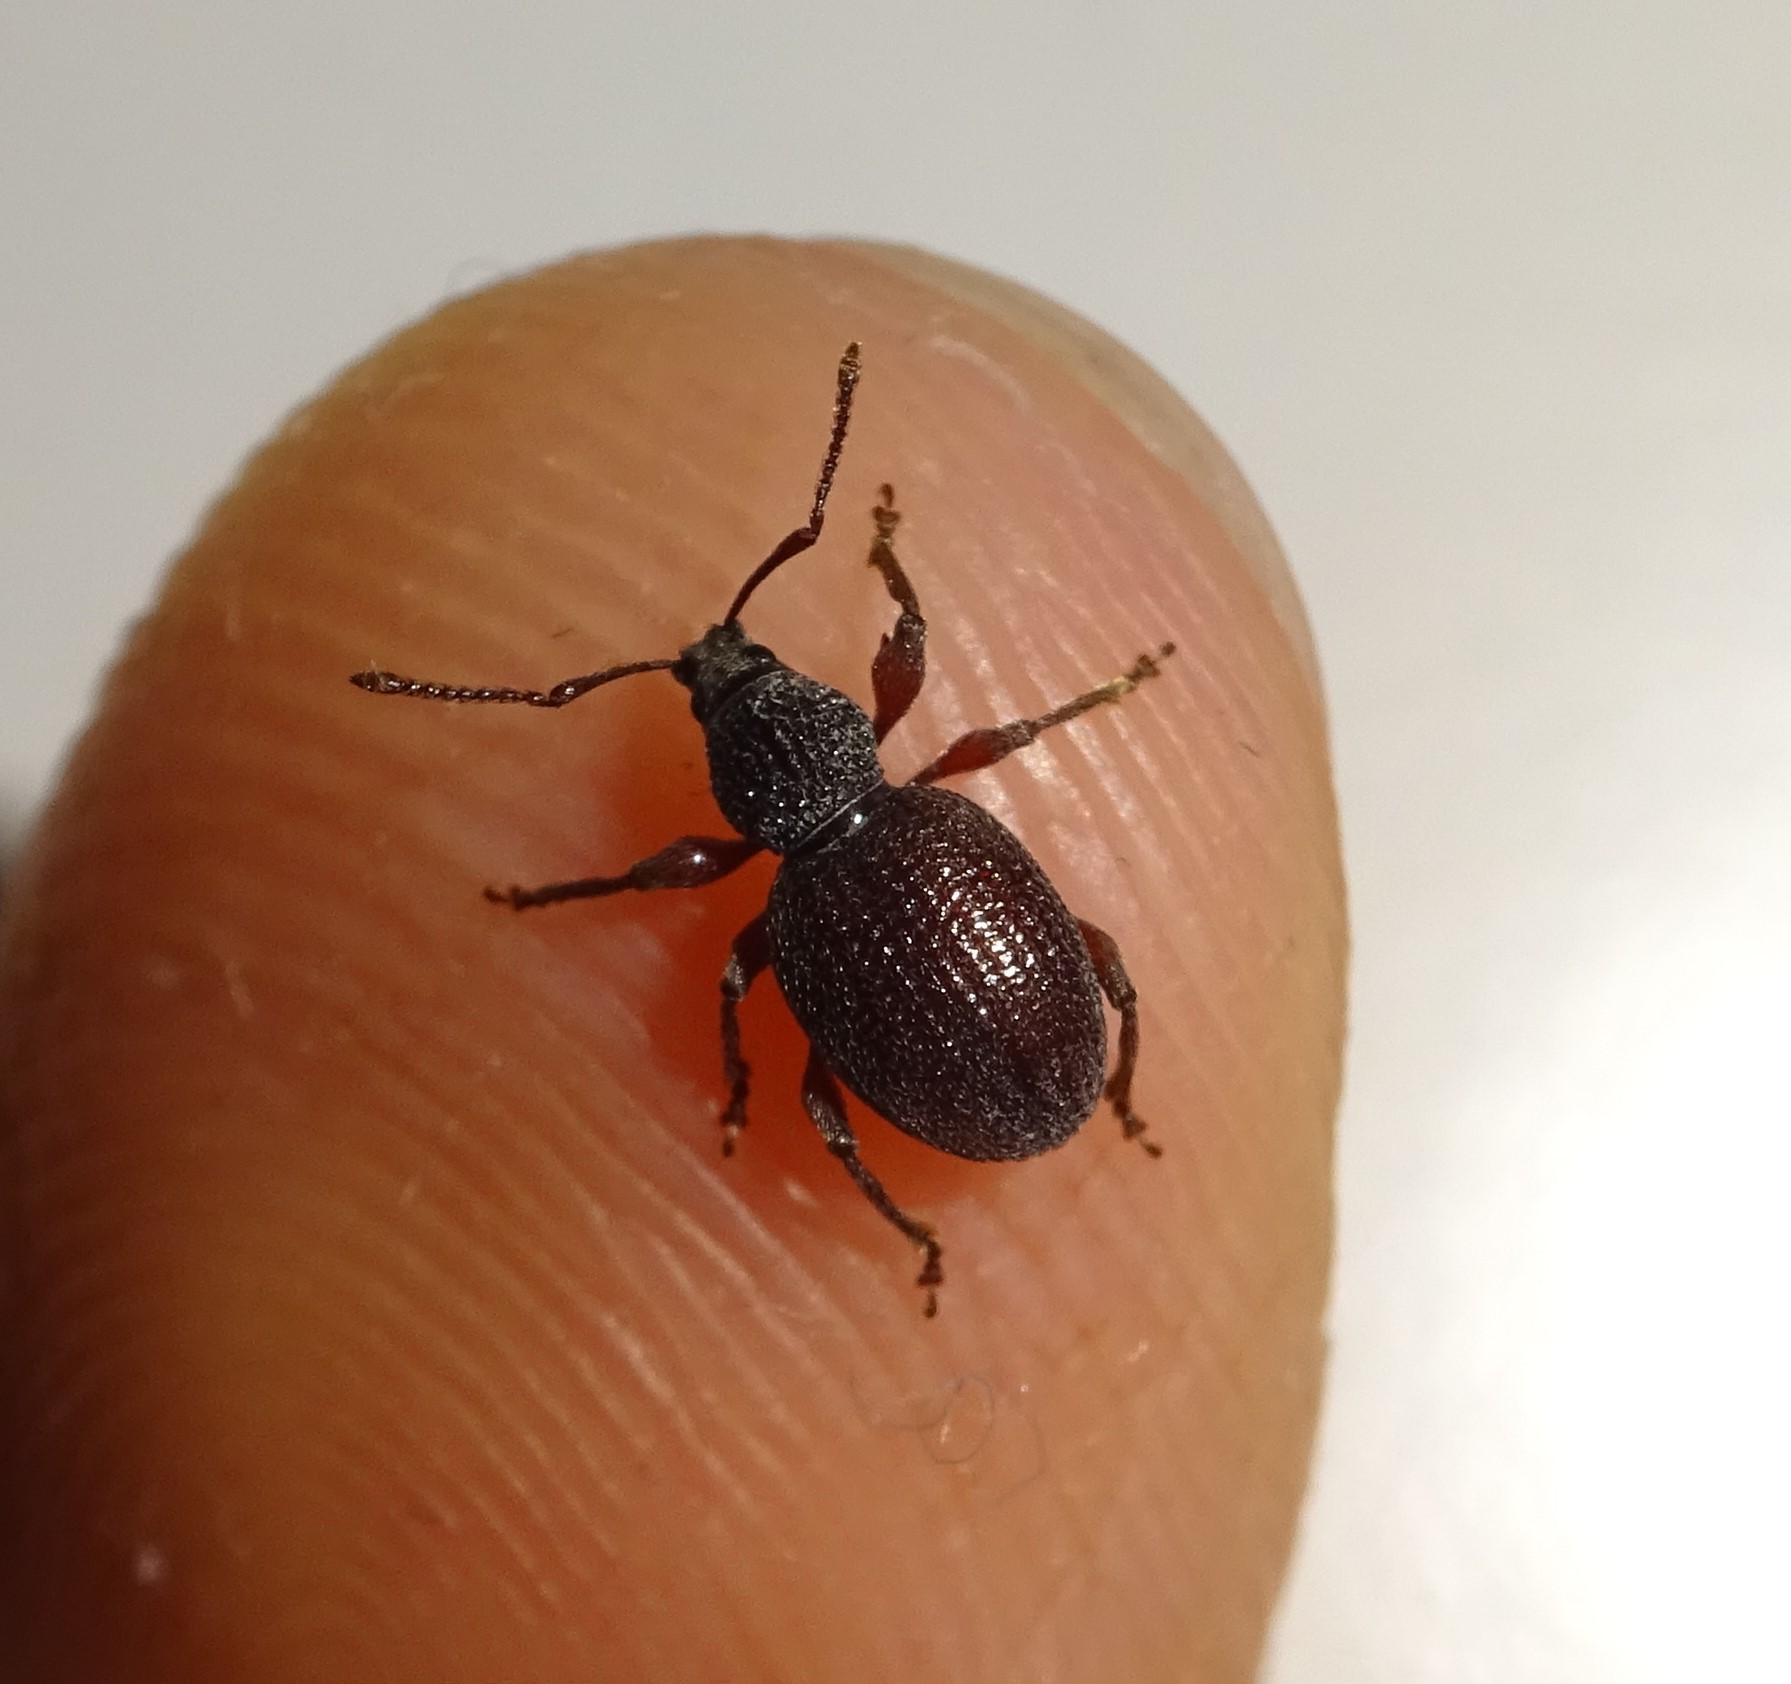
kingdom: Animalia
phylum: Arthropoda
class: Insecta
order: Coleoptera
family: Curculionidae
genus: Otiorhynchus
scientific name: Otiorhynchus ovatus
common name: Strawberry root weevil
